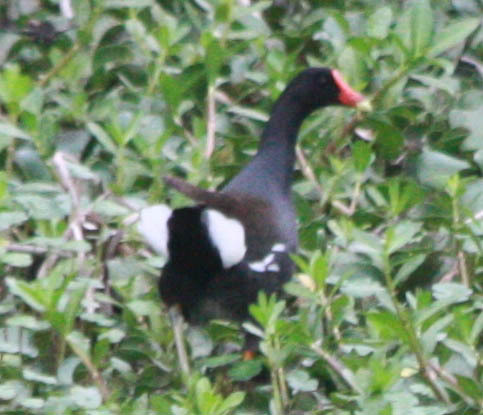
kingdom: Animalia
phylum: Chordata
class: Aves
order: Gruiformes
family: Rallidae
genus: Gallinula
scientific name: Gallinula chloropus
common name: Common moorhen
